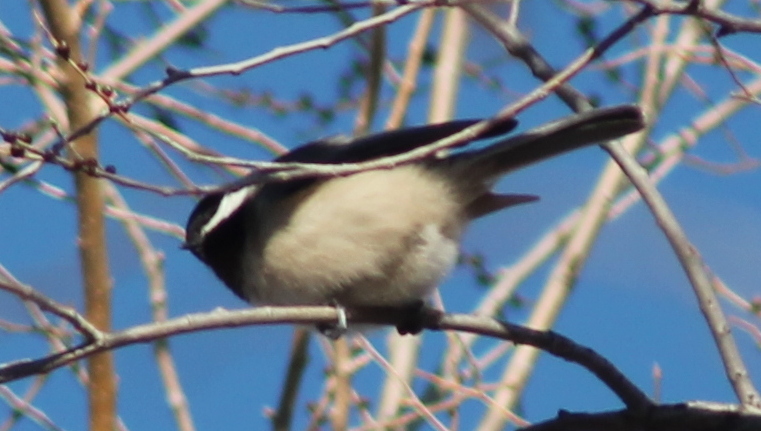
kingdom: Animalia
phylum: Chordata
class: Aves
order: Passeriformes
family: Paridae
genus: Poecile
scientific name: Poecile carolinensis
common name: Carolina chickadee
